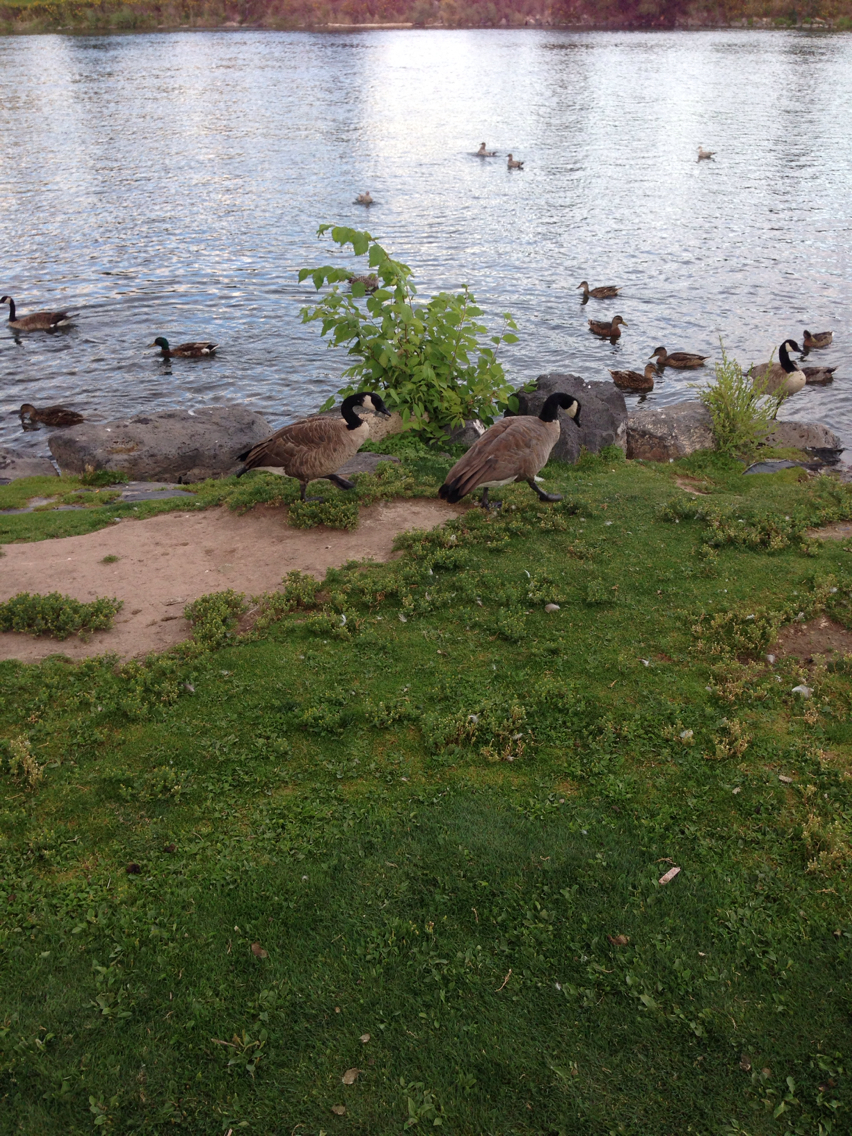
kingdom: Animalia
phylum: Chordata
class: Aves
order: Anseriformes
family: Anatidae
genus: Branta
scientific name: Branta canadensis
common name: Canada goose
